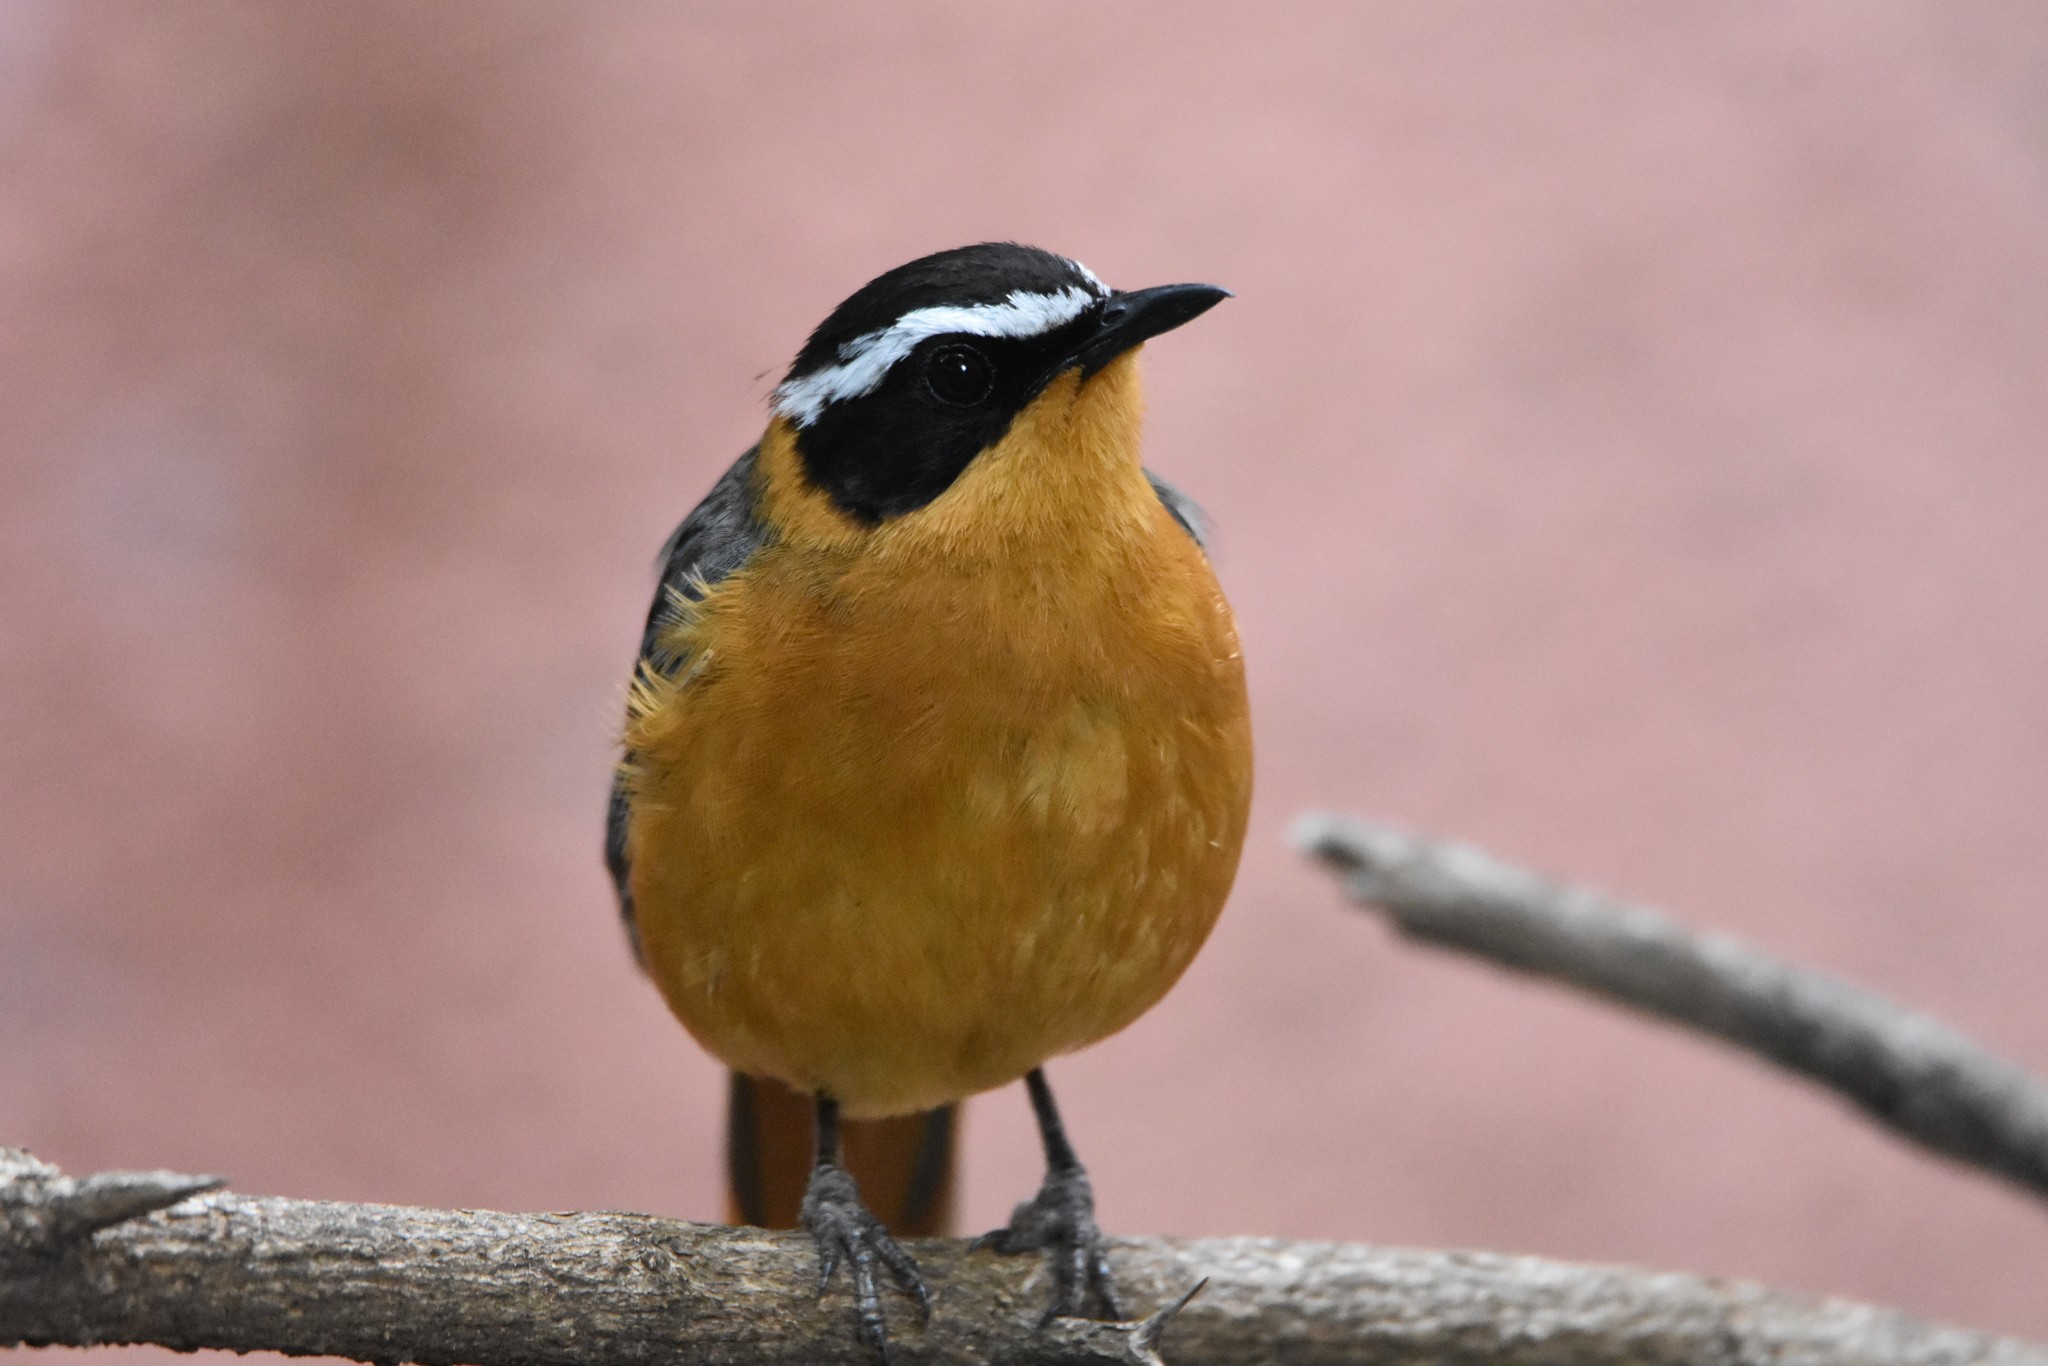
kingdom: Animalia
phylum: Chordata
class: Aves
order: Passeriformes
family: Muscicapidae
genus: Cossypha
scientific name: Cossypha heuglini
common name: White-browed robin-chat
